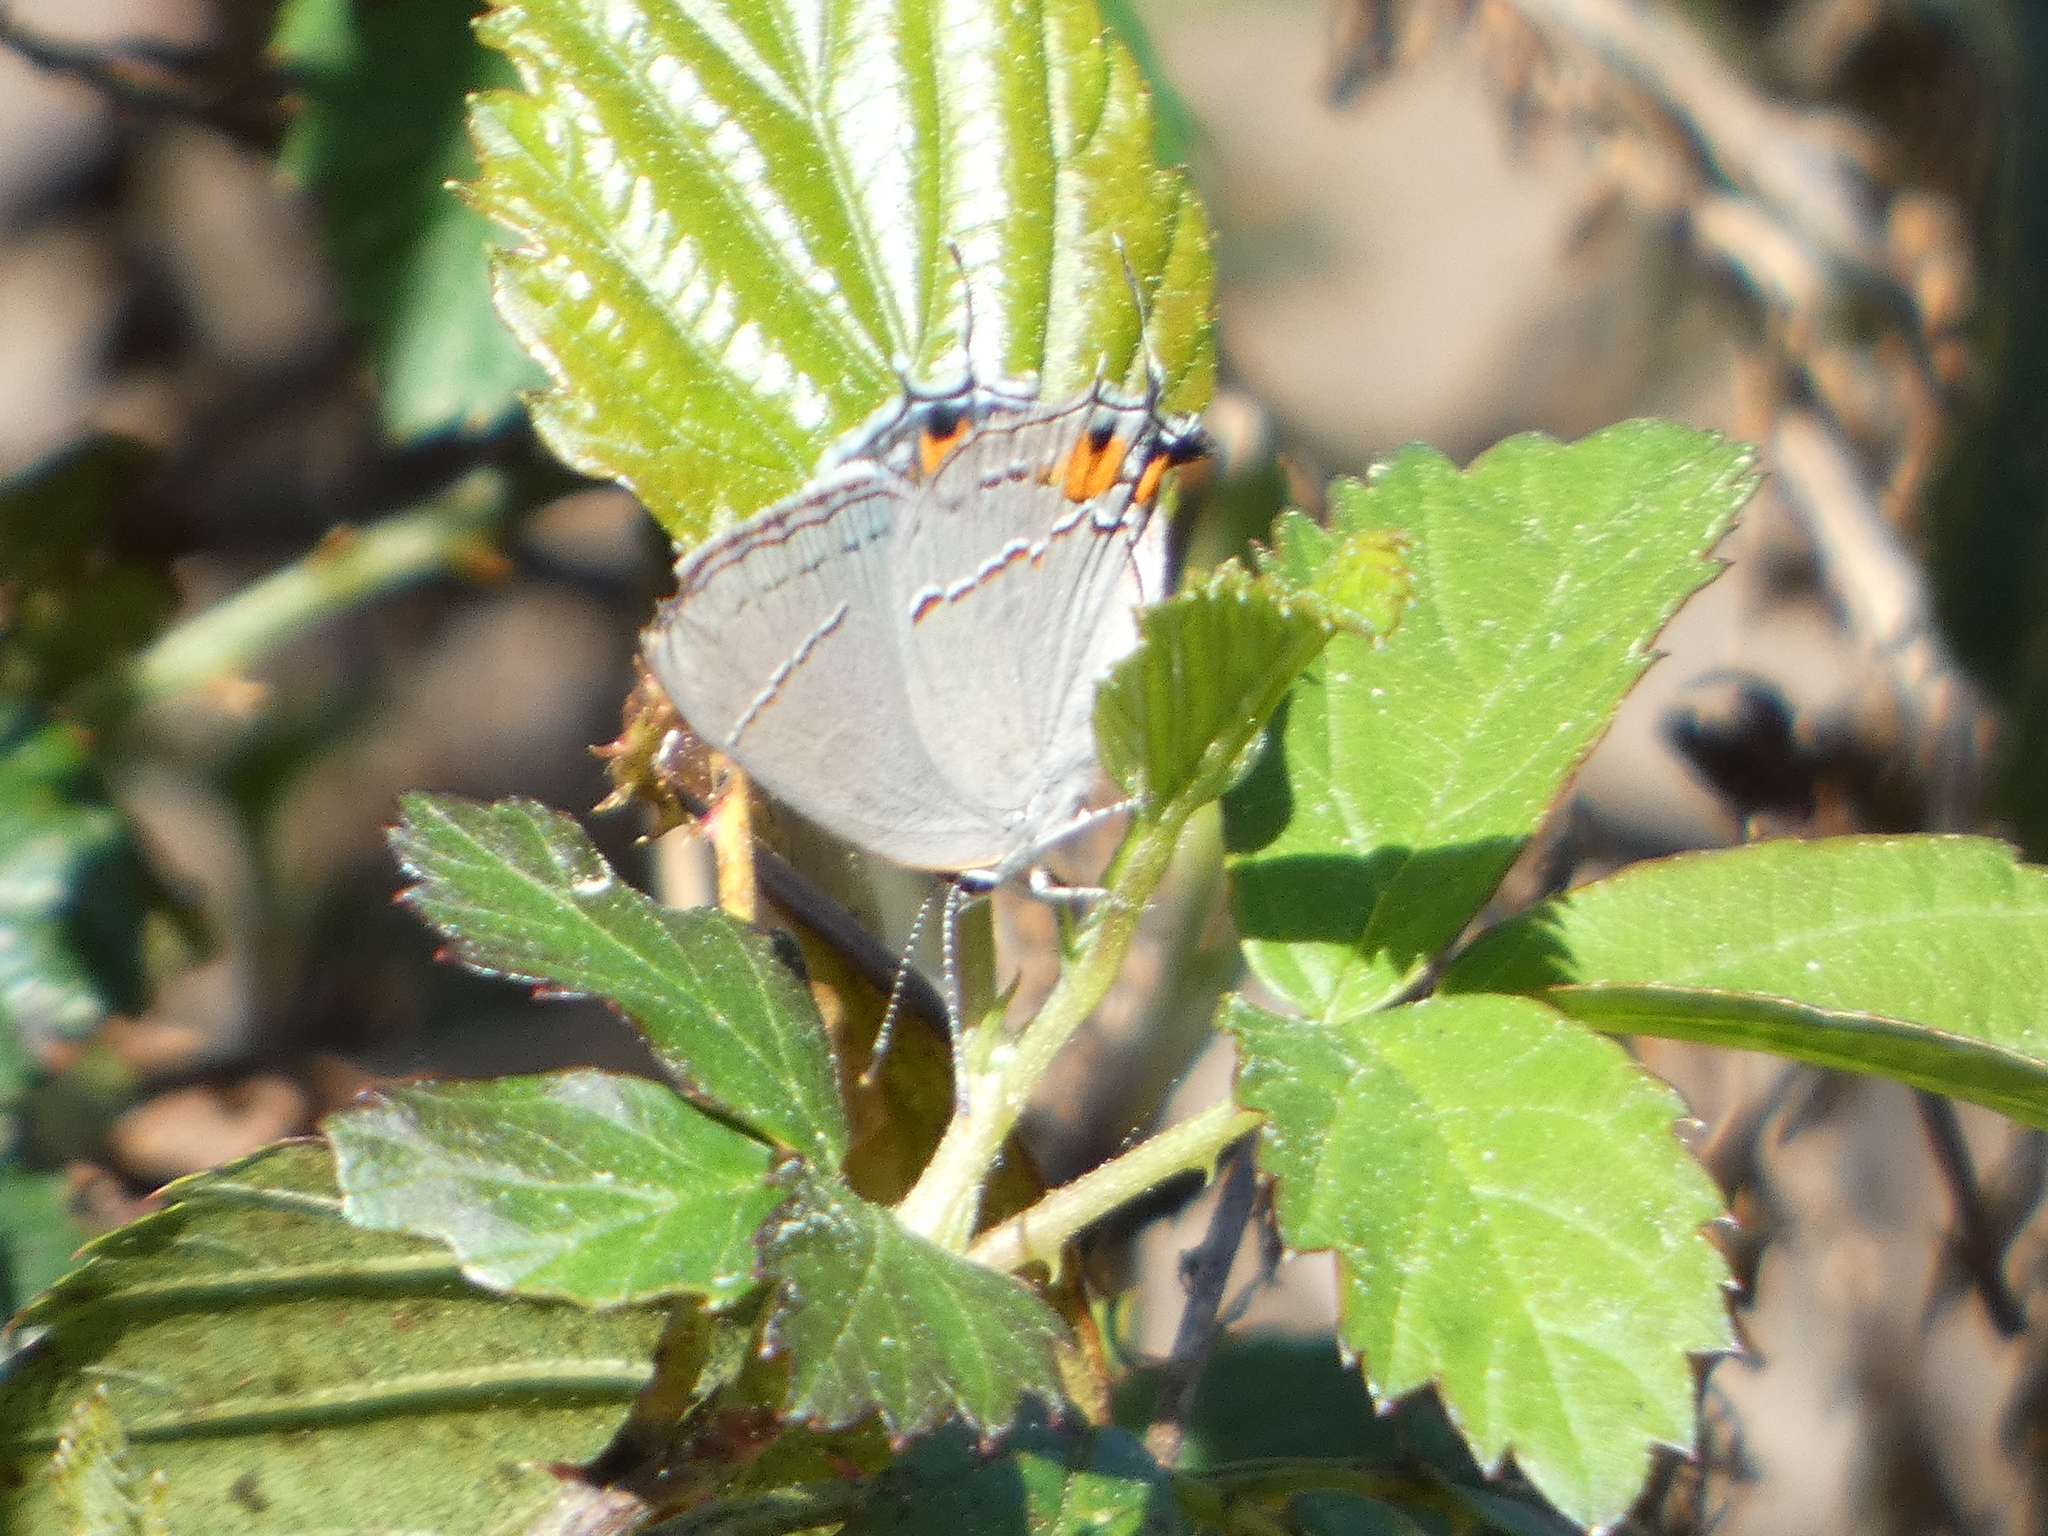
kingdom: Animalia
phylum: Arthropoda
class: Insecta
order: Lepidoptera
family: Lycaenidae
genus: Strymon
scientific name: Strymon melinus
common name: Gray hairstreak
